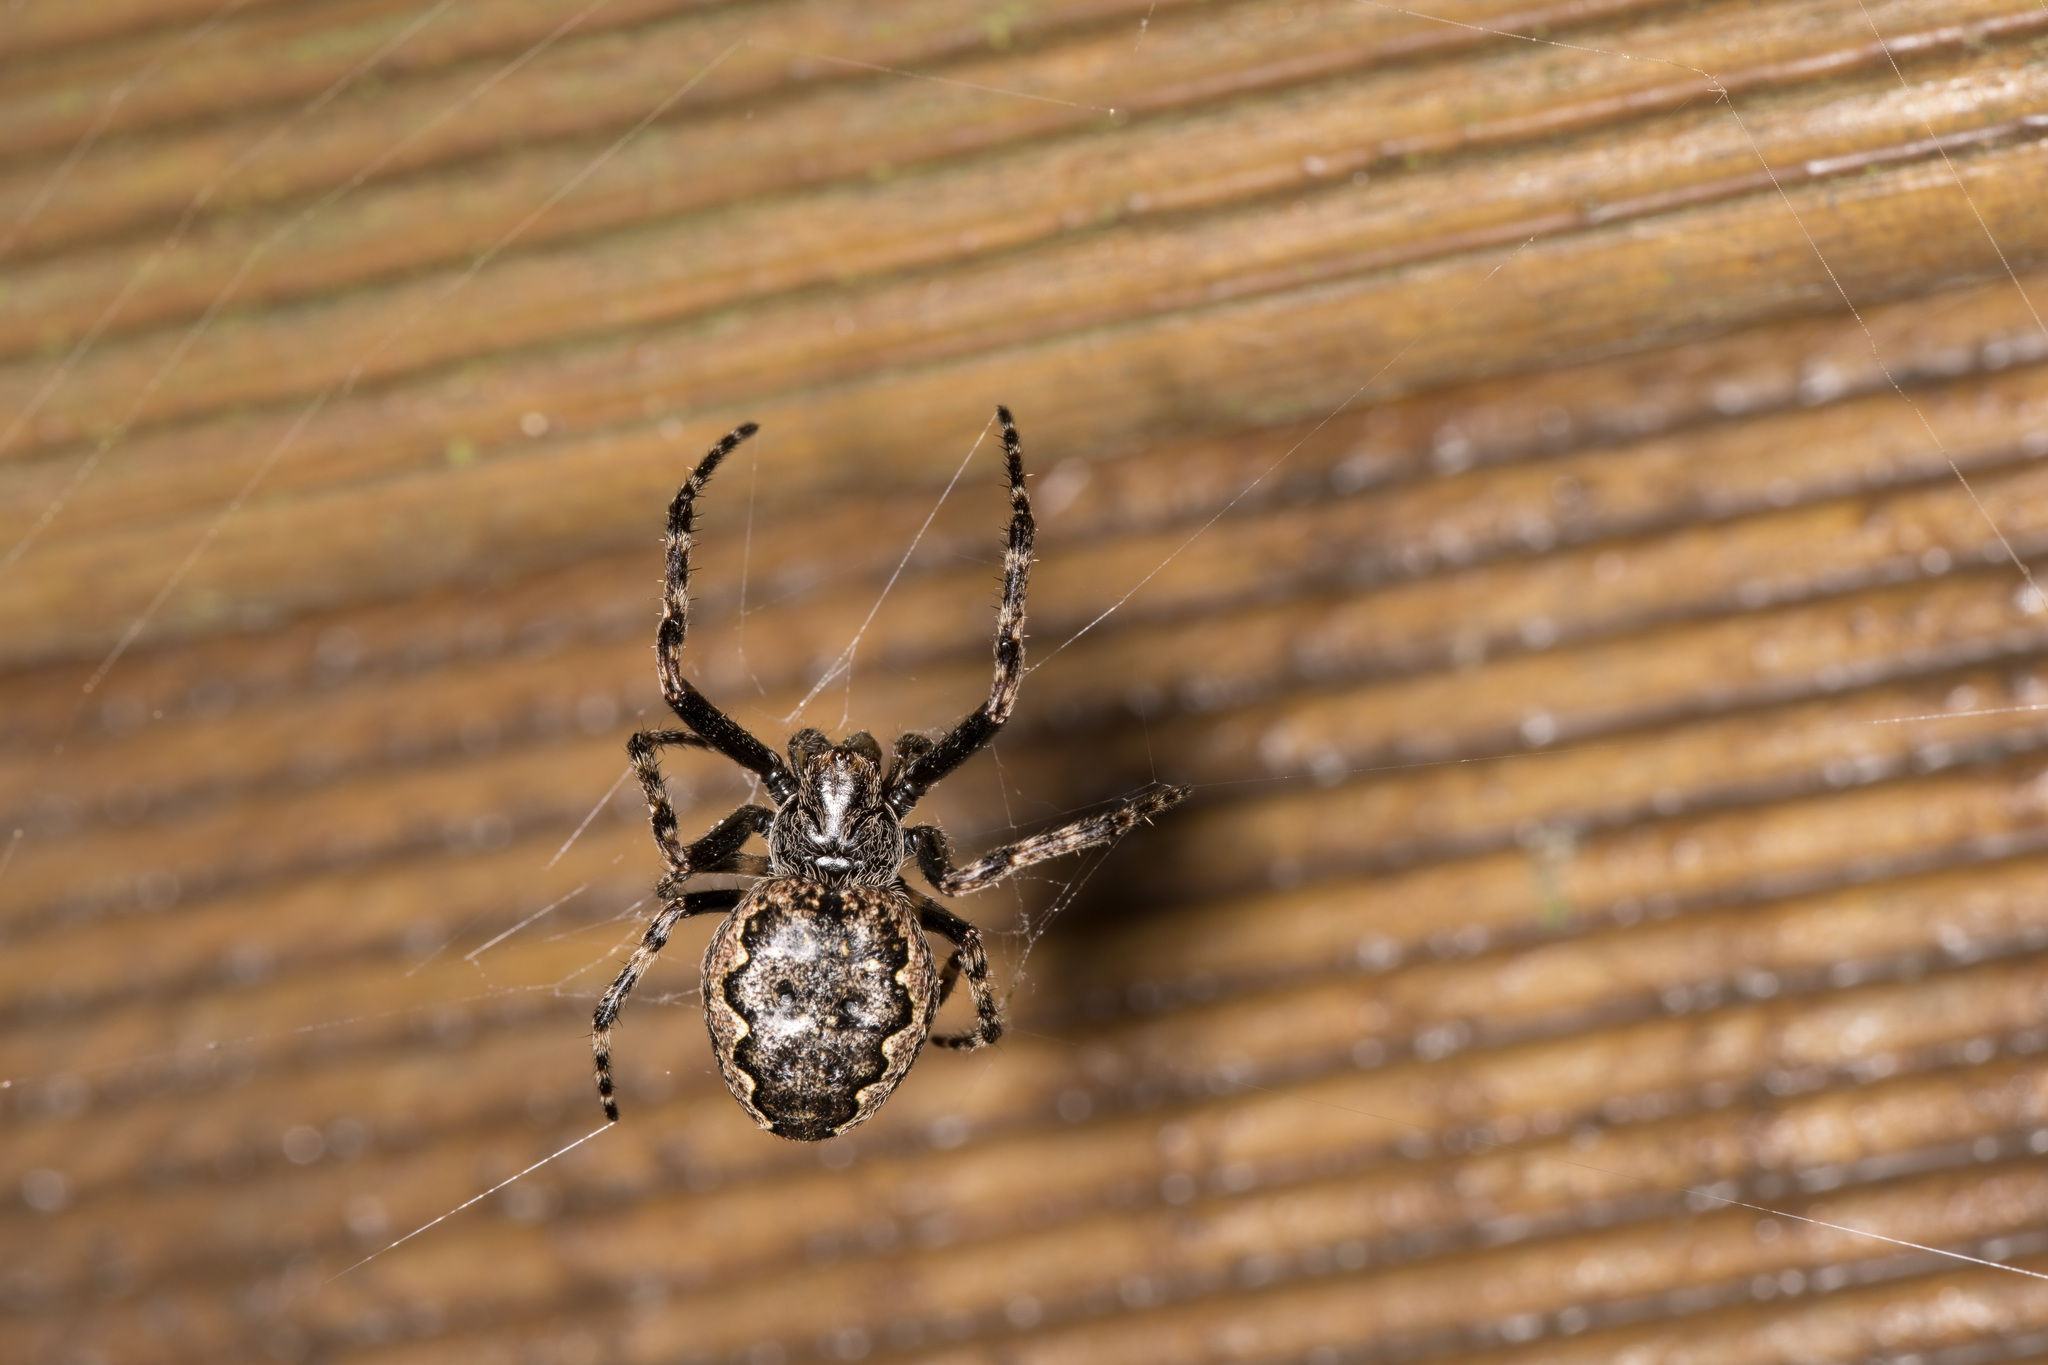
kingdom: Animalia
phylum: Arthropoda
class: Arachnida
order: Araneae
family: Araneidae
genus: Nuctenea
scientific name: Nuctenea umbratica
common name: Toad spider
